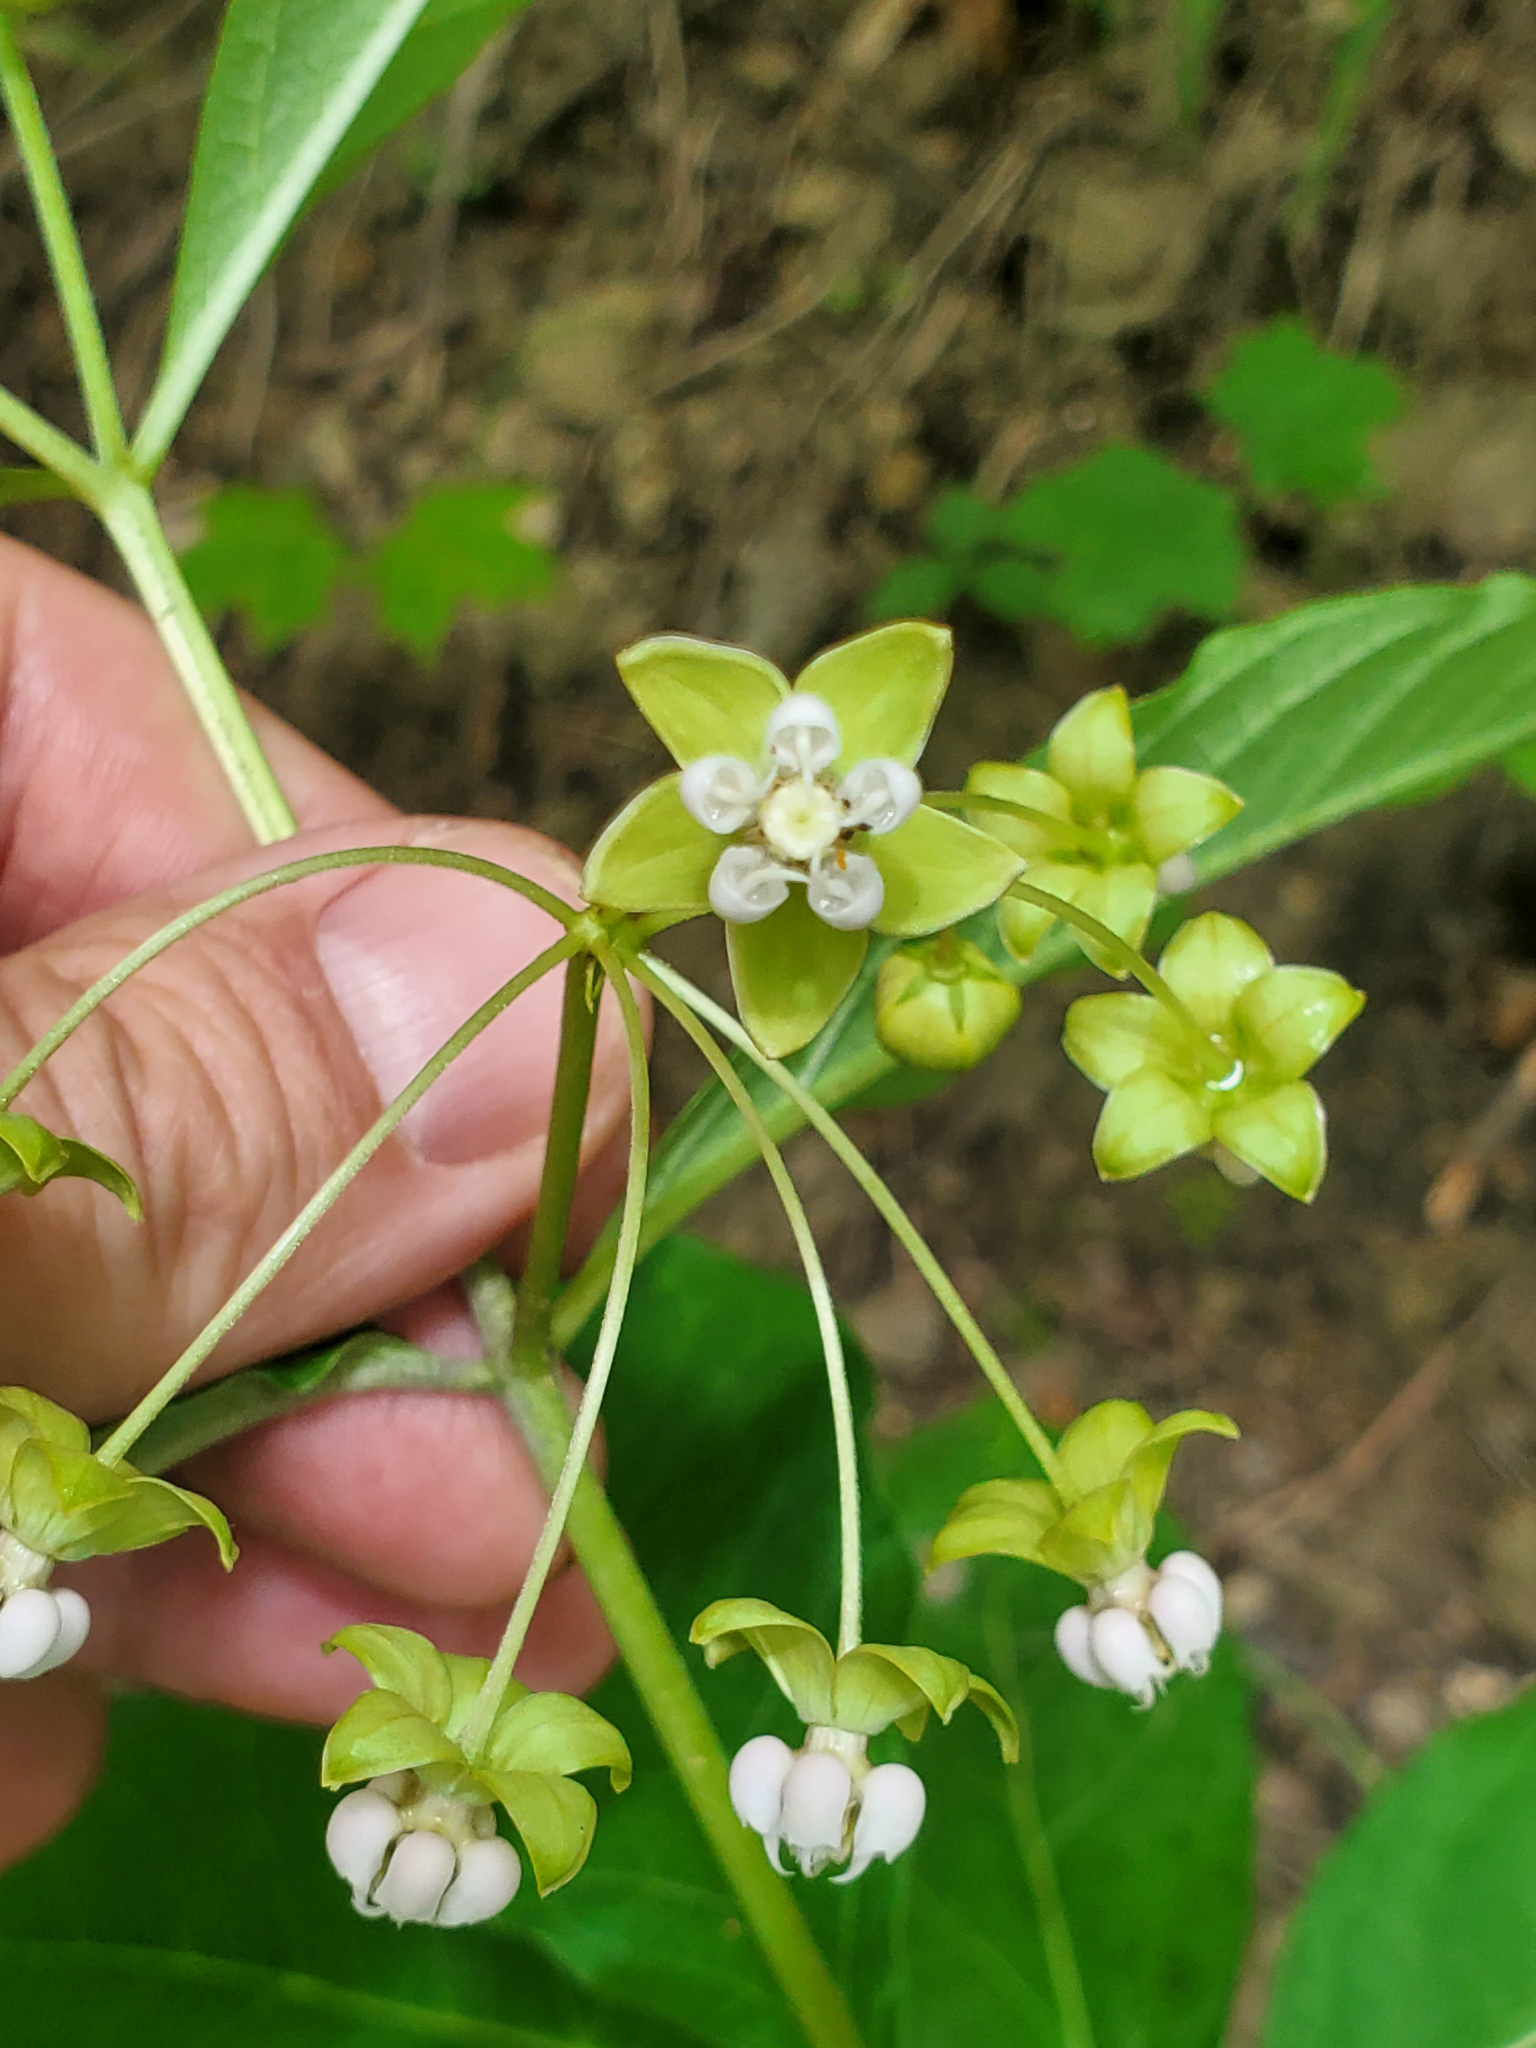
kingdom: Plantae
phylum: Tracheophyta
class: Magnoliopsida
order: Gentianales
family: Apocynaceae
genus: Asclepias
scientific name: Asclepias exaltata
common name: Poke milkweed
